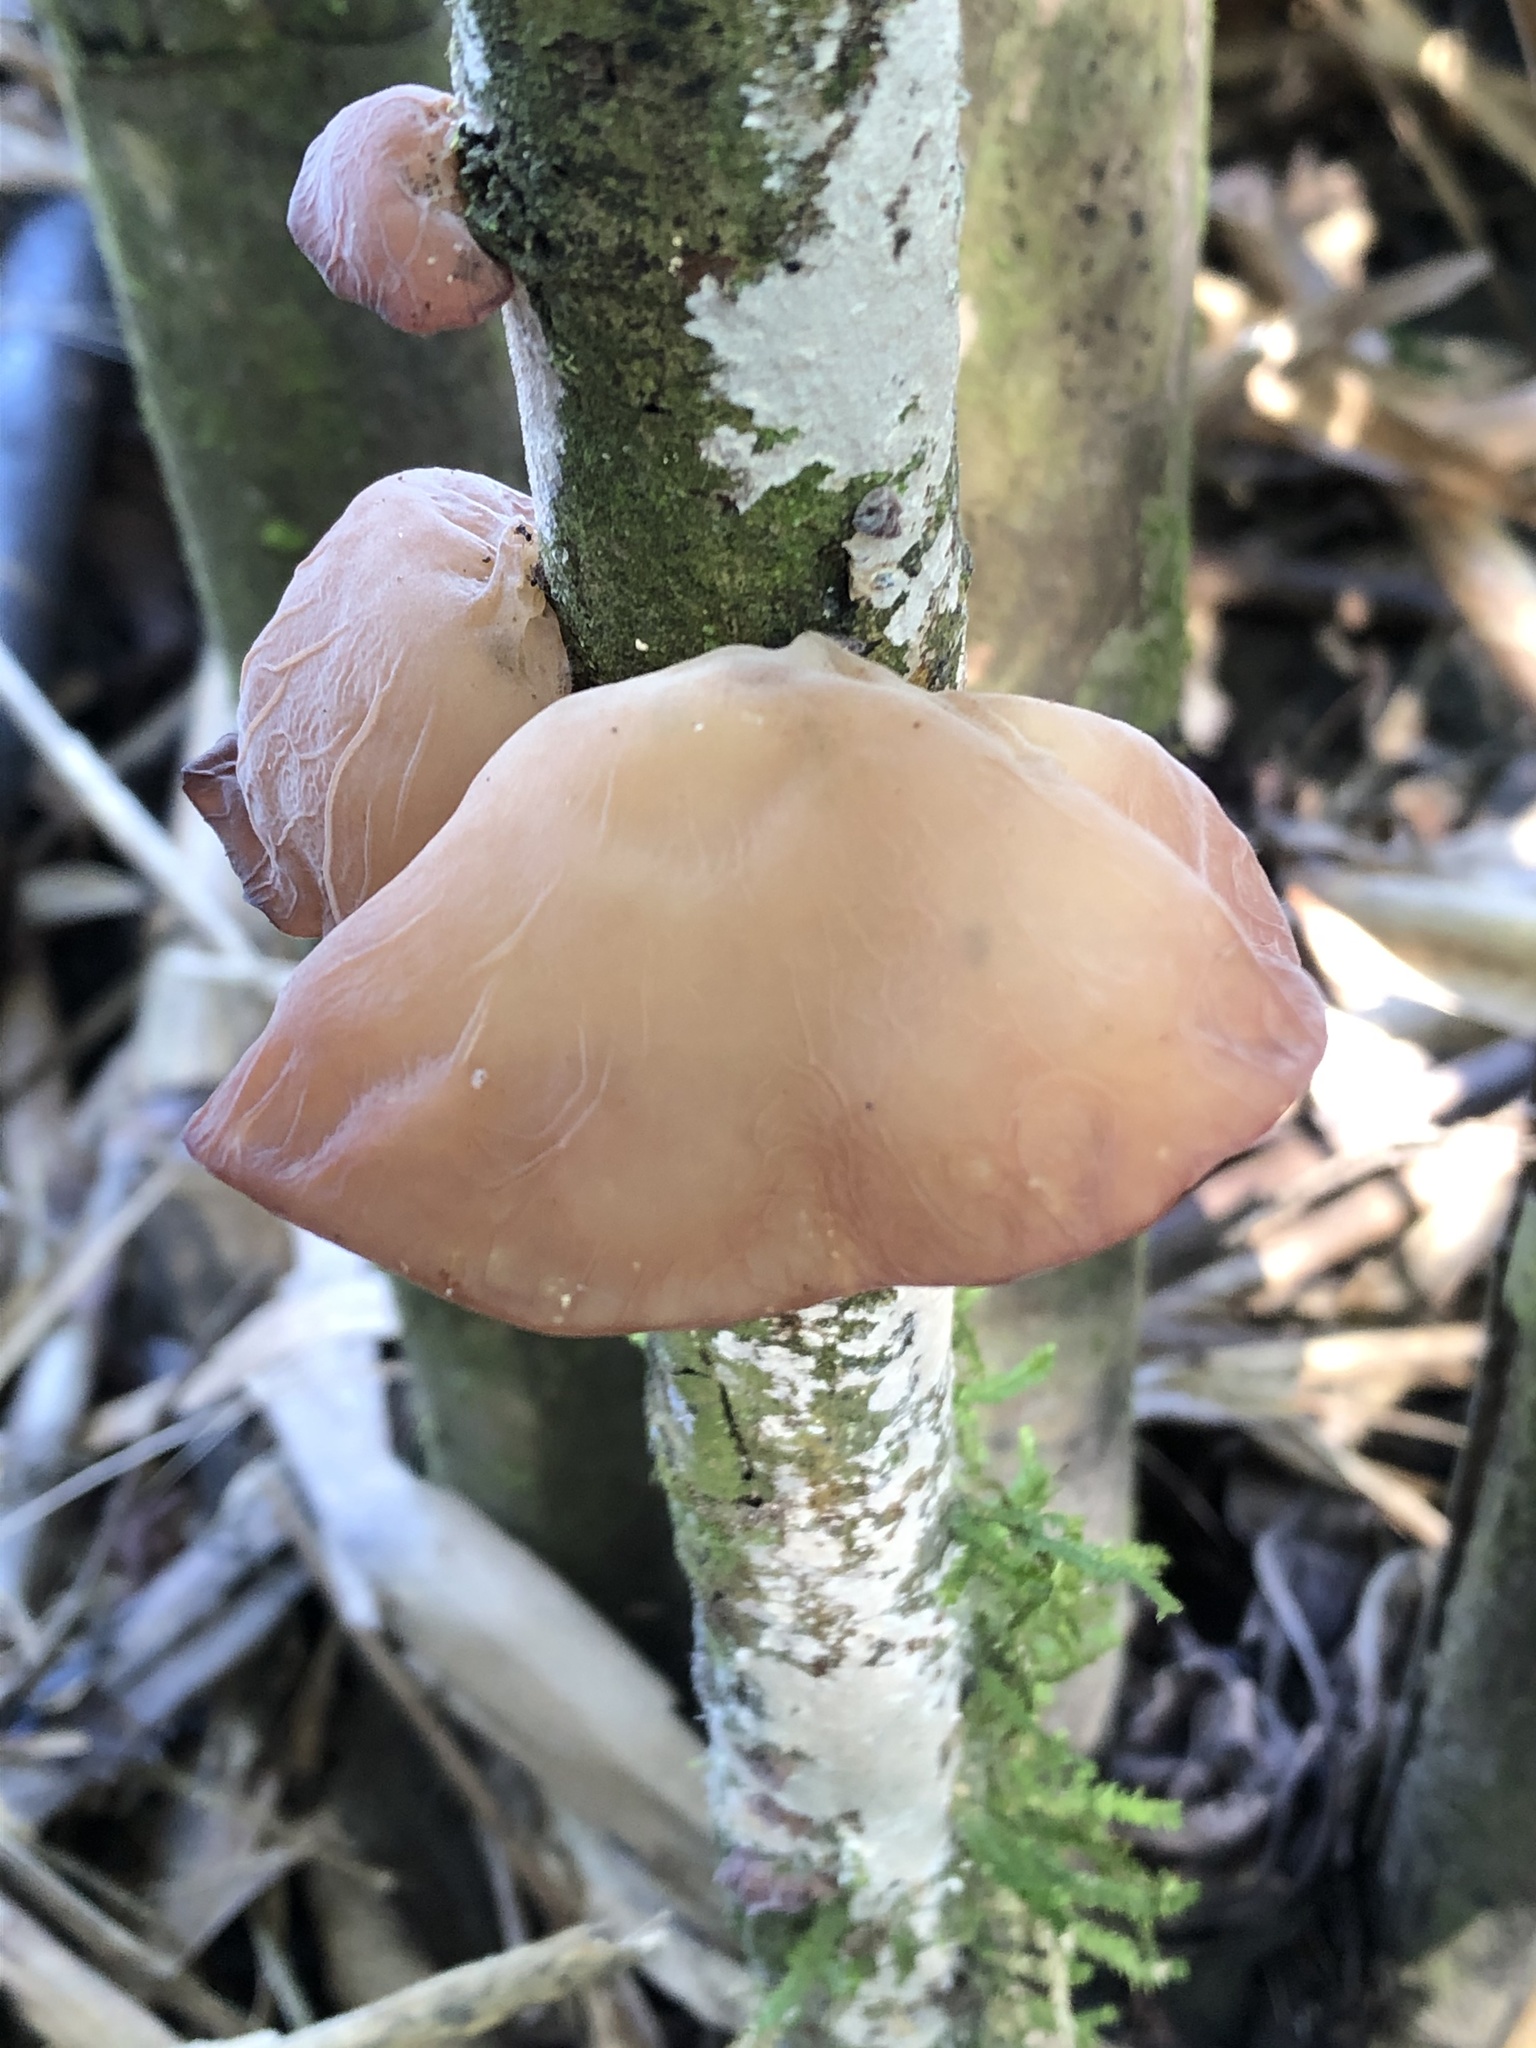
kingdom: Fungi
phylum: Basidiomycota
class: Agaricomycetes
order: Auriculariales
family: Auriculariaceae
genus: Auricularia
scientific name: Auricularia fuscosuccinea
